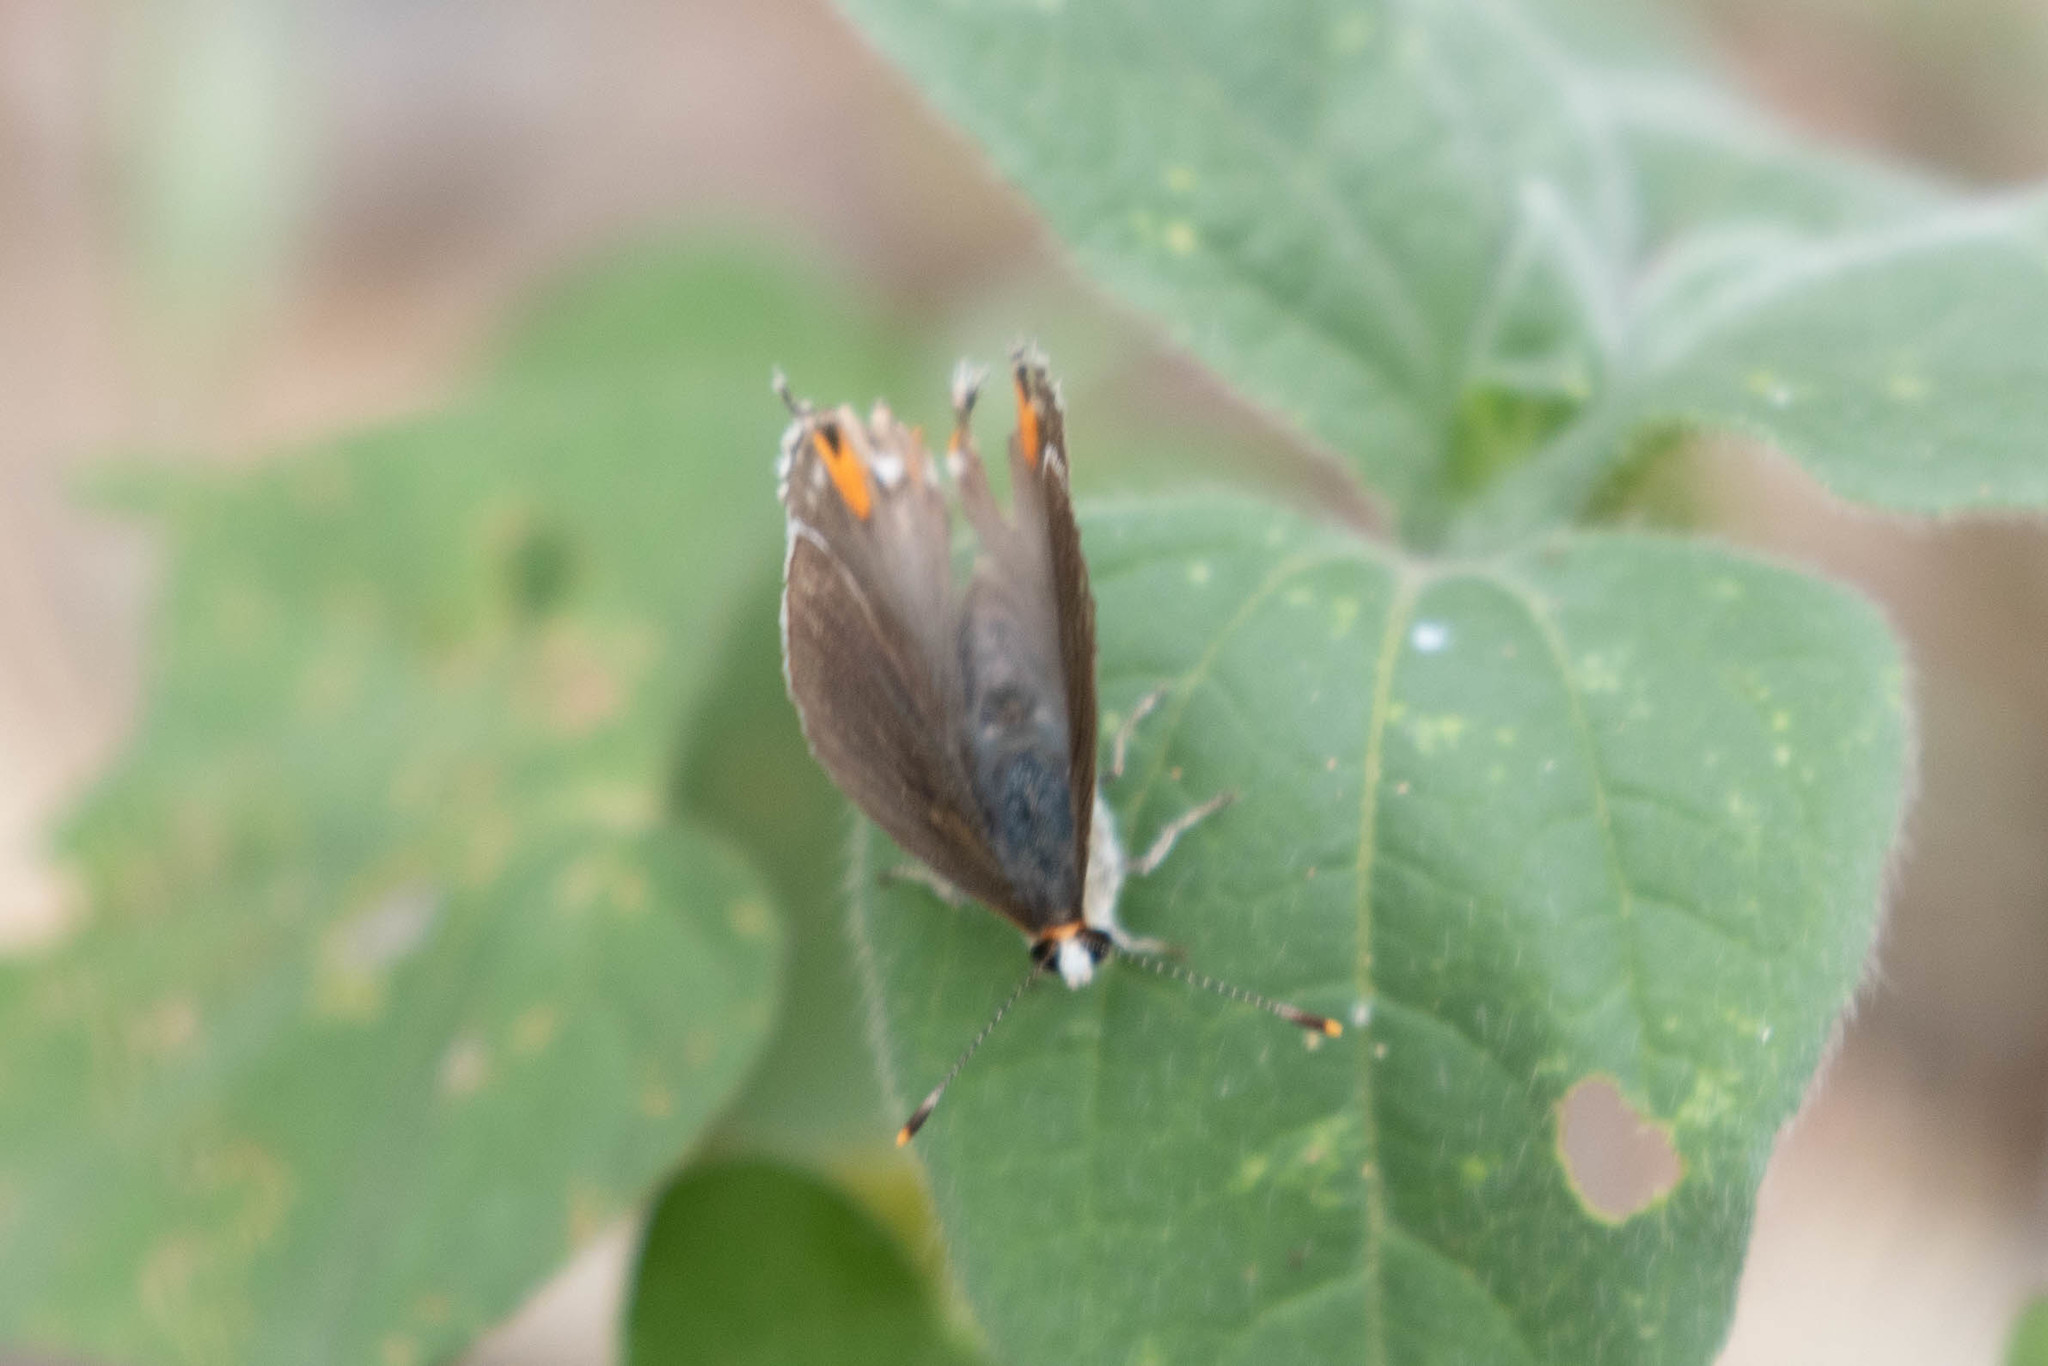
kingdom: Animalia
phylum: Arthropoda
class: Insecta
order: Lepidoptera
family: Lycaenidae
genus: Strymon
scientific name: Strymon melinus
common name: Gray hairstreak
